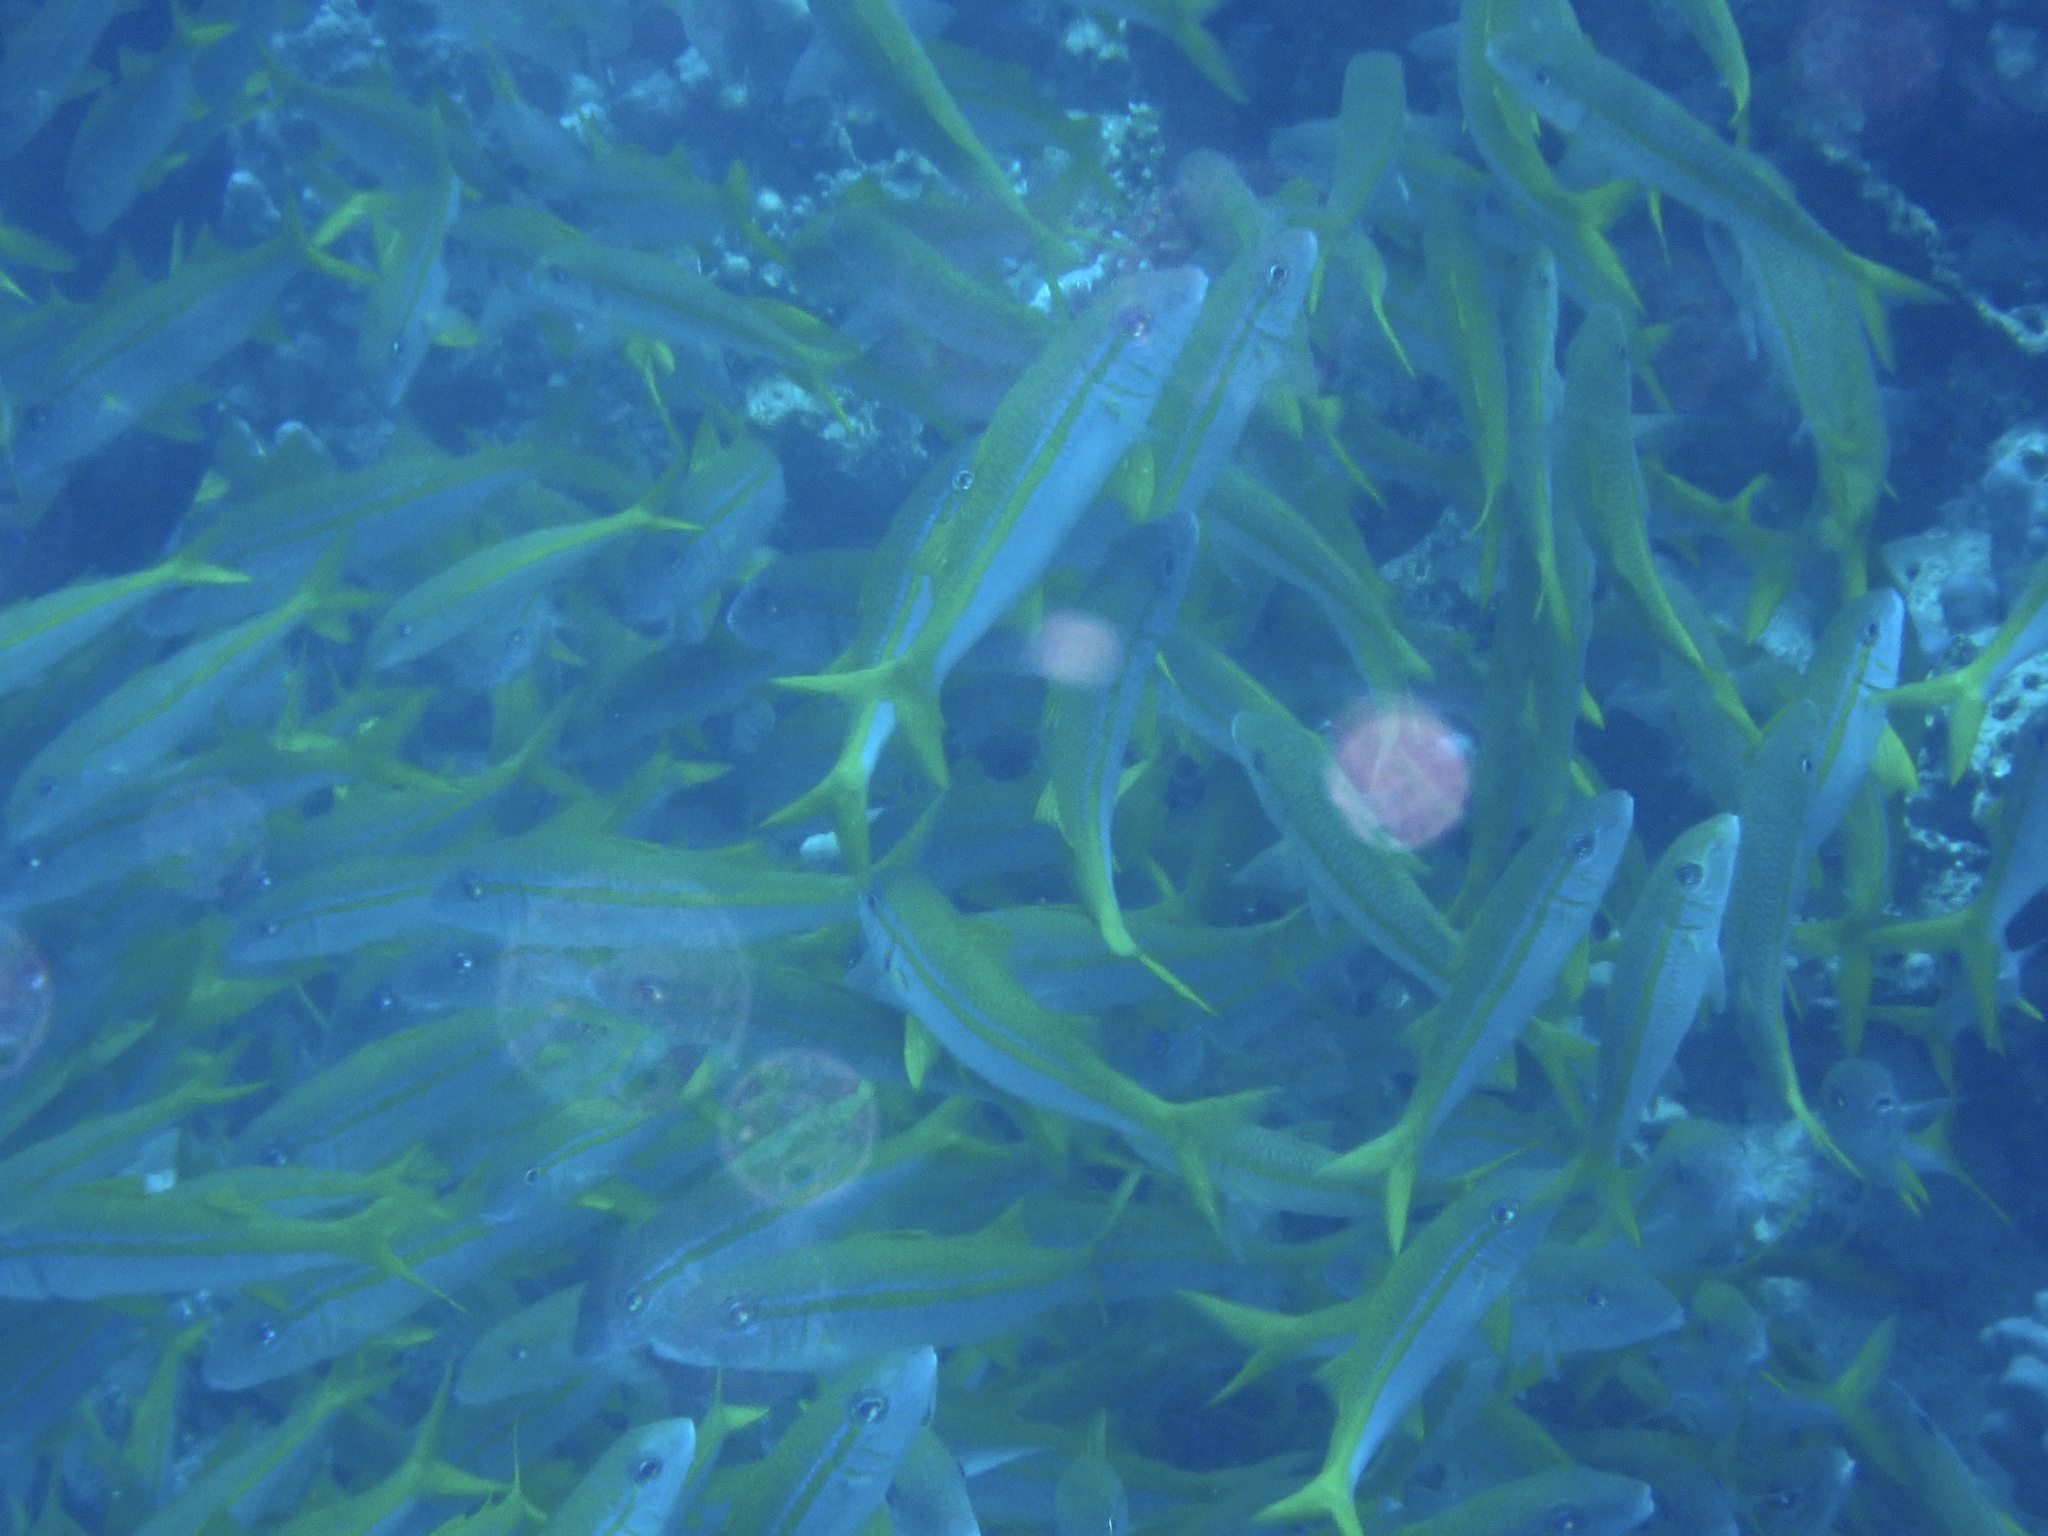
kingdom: Animalia
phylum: Chordata
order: Perciformes
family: Mullidae
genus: Mulloidichthys
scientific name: Mulloidichthys vanicolensis
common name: Yellowfin goatfish
